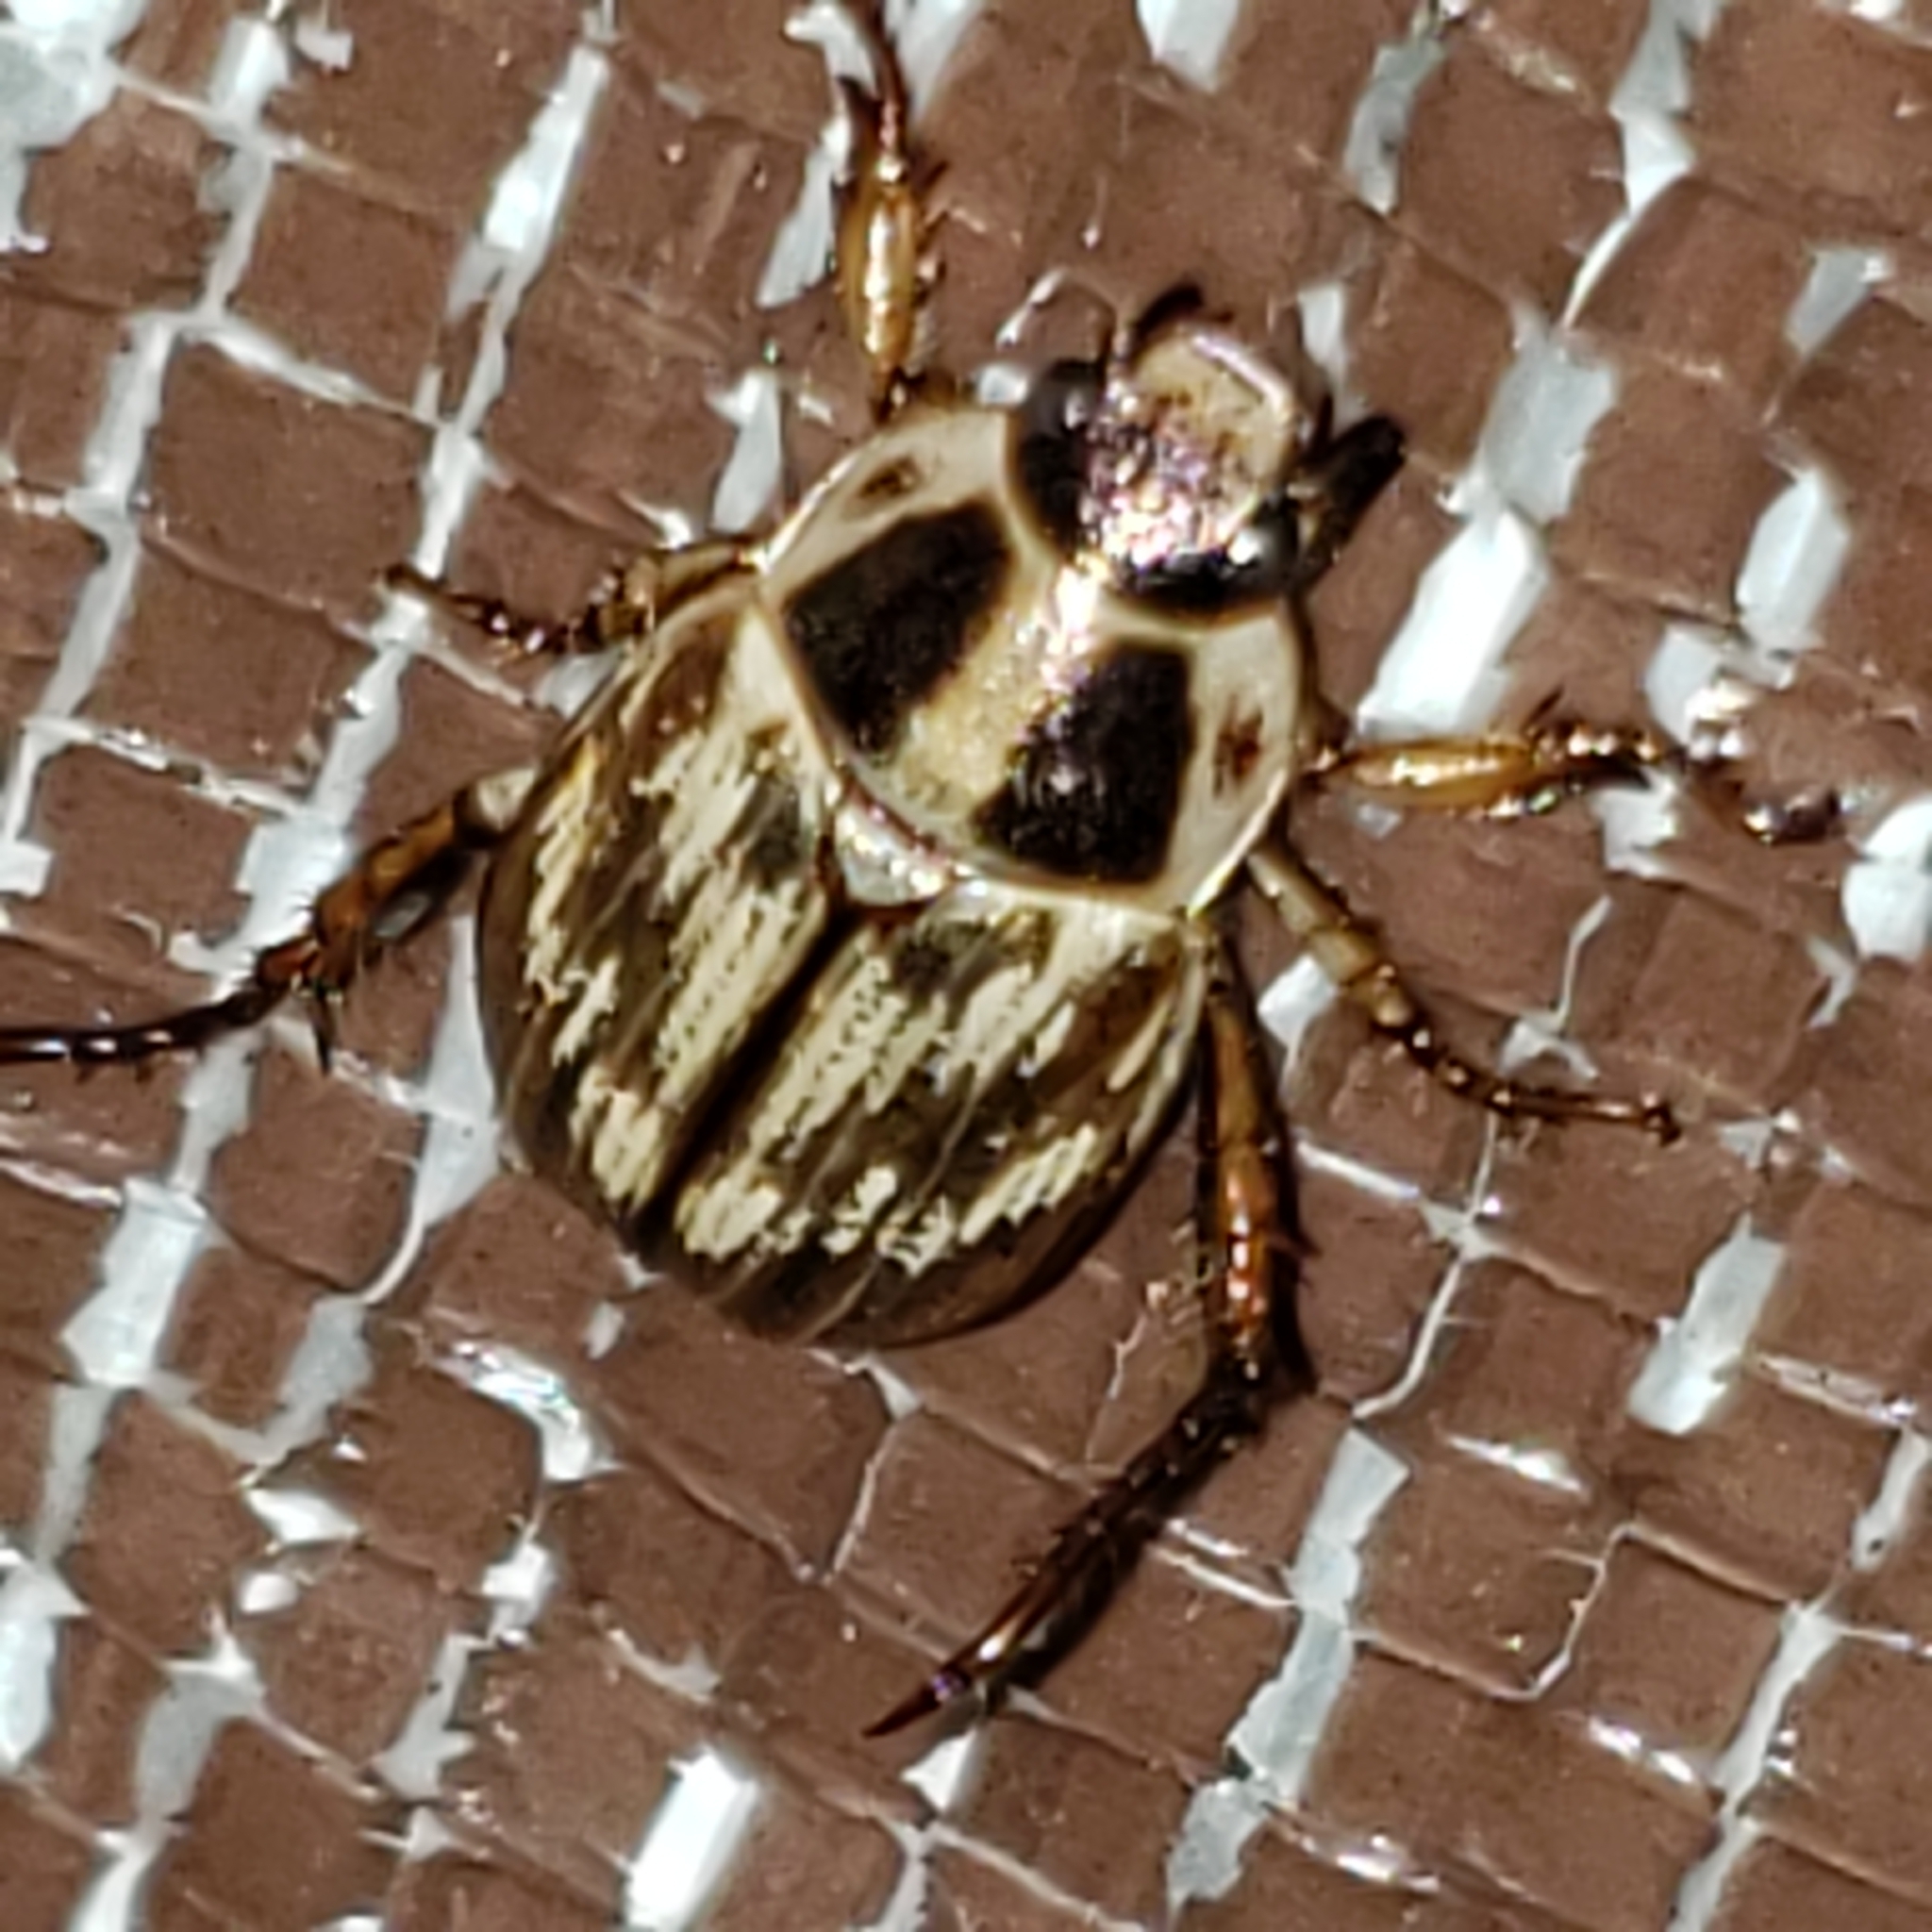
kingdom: Animalia
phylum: Arthropoda
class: Insecta
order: Coleoptera
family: Scarabaeidae
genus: Exomala
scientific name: Exomala orientalis
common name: Oriental beetle
